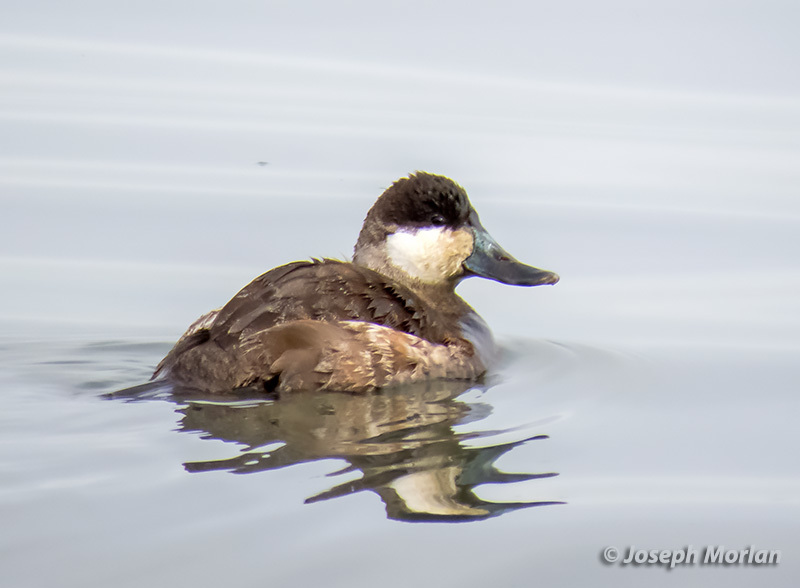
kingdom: Animalia
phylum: Chordata
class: Aves
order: Anseriformes
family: Anatidae
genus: Oxyura
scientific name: Oxyura jamaicensis
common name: Ruddy duck
